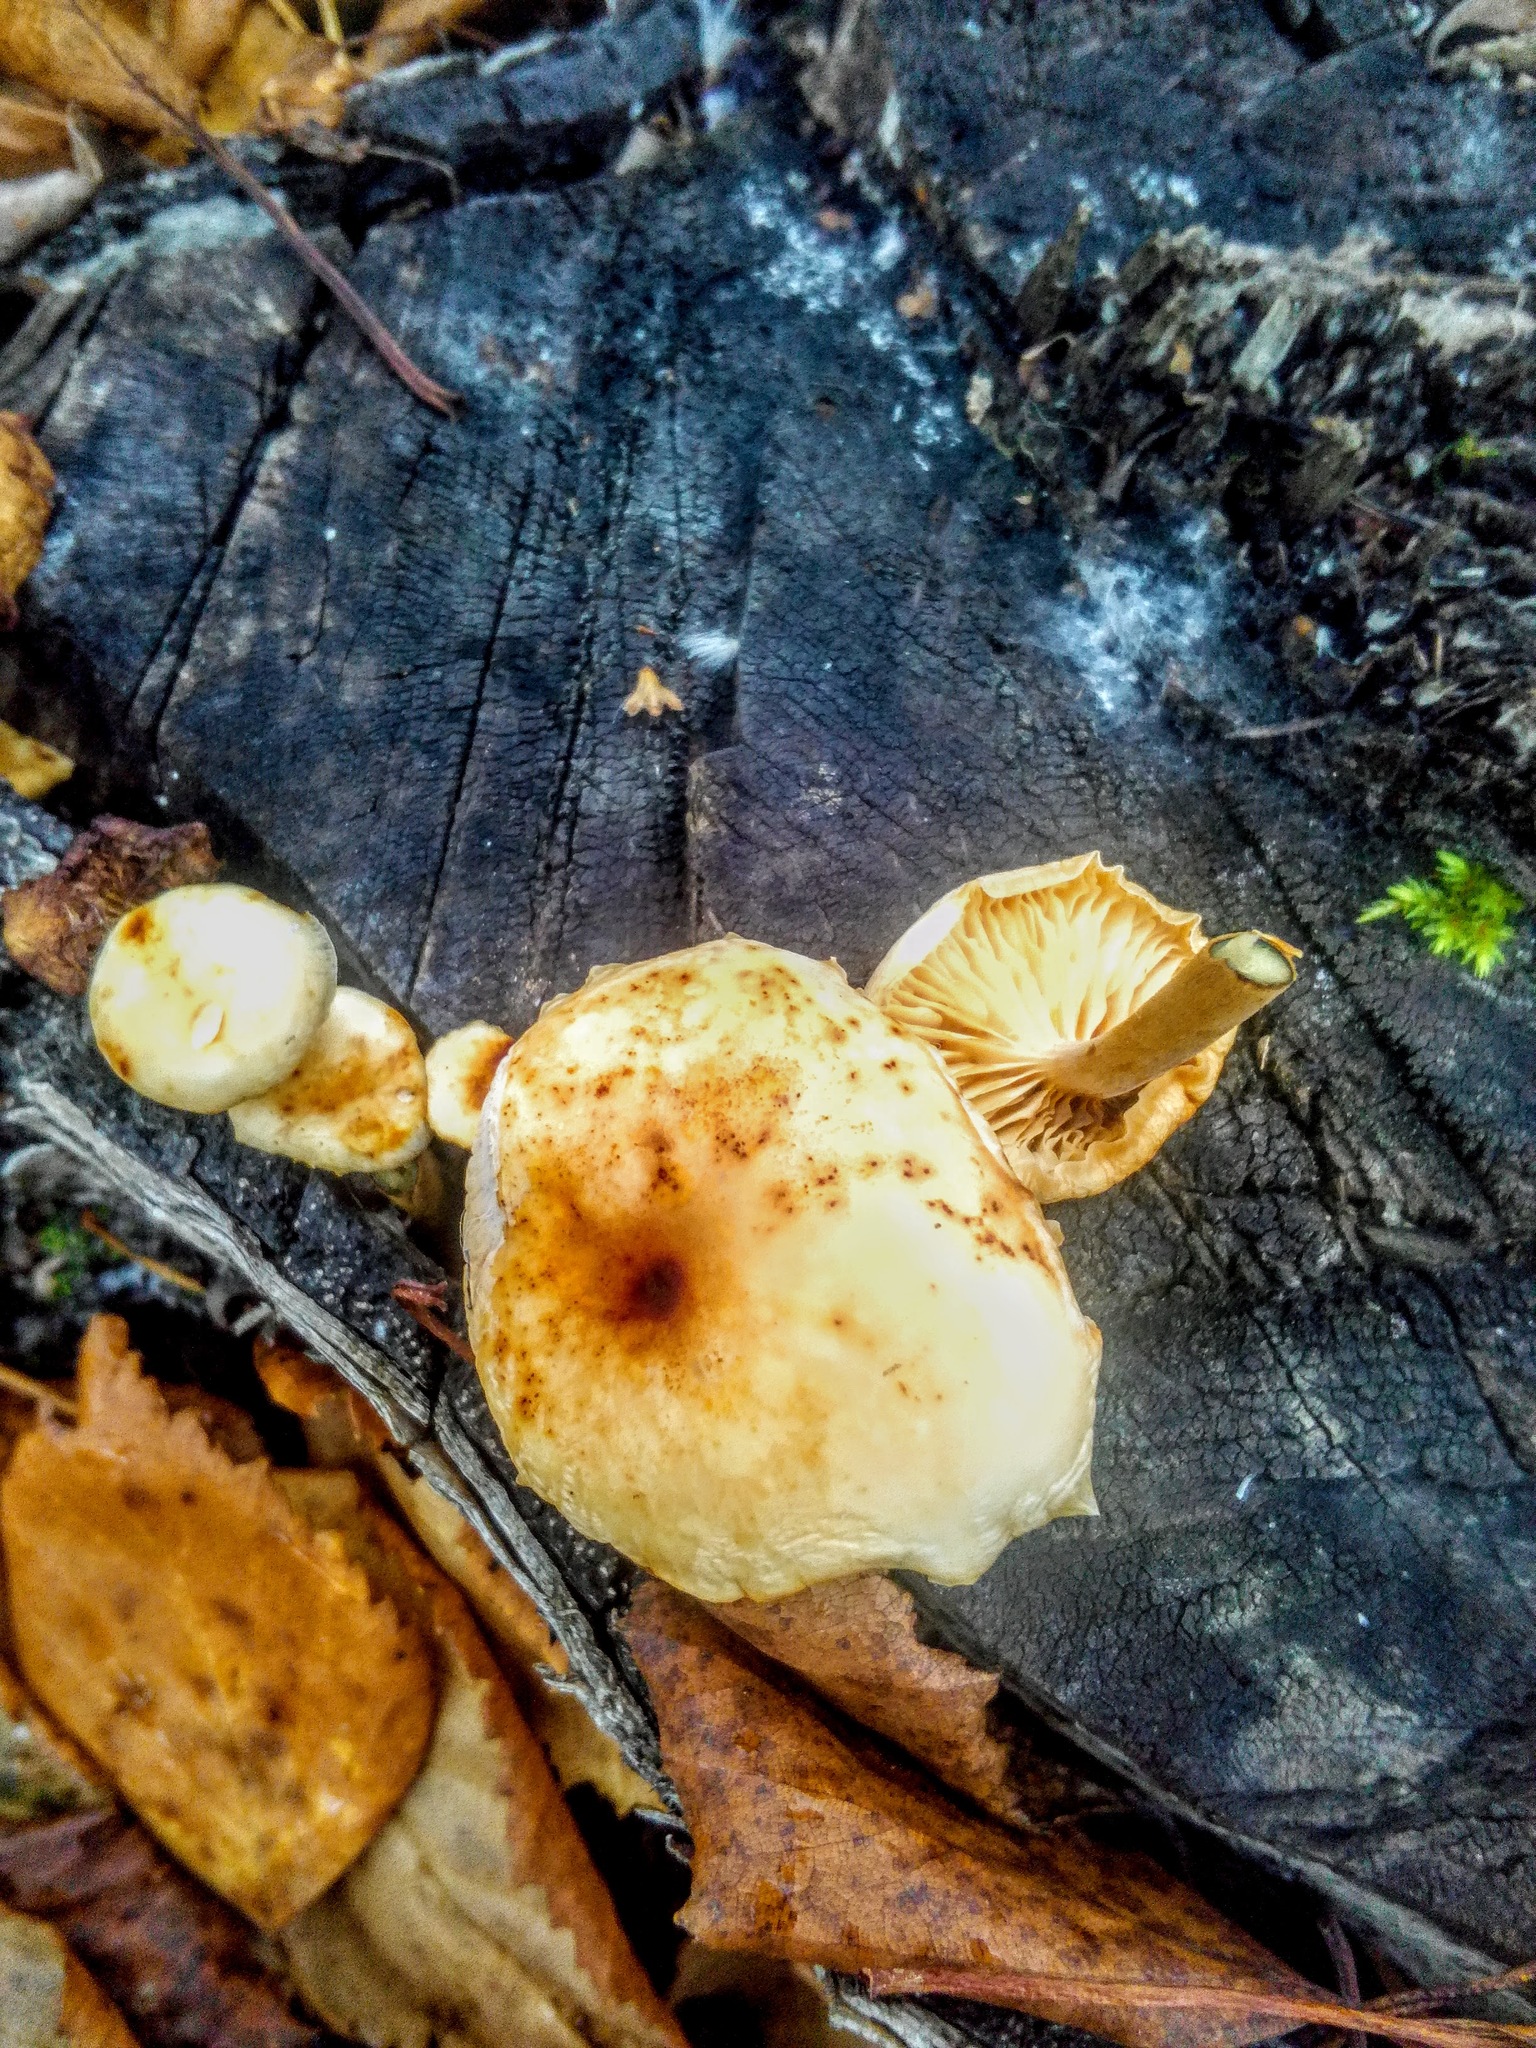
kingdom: Fungi
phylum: Basidiomycota
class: Agaricomycetes
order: Agaricales
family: Physalacriaceae
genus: Flammulina
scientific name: Flammulina velutipes
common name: Velvet shank
